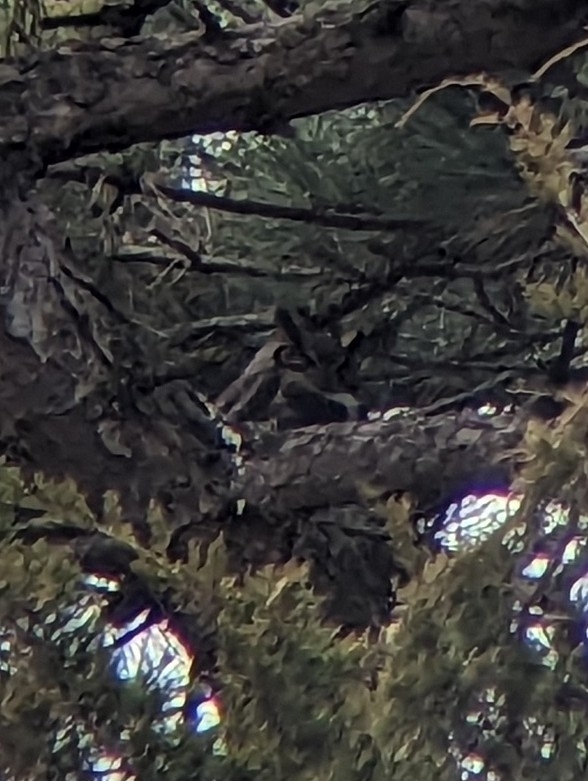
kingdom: Animalia
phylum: Chordata
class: Aves
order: Strigiformes
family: Strigidae
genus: Bubo
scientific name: Bubo virginianus
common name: Great horned owl
